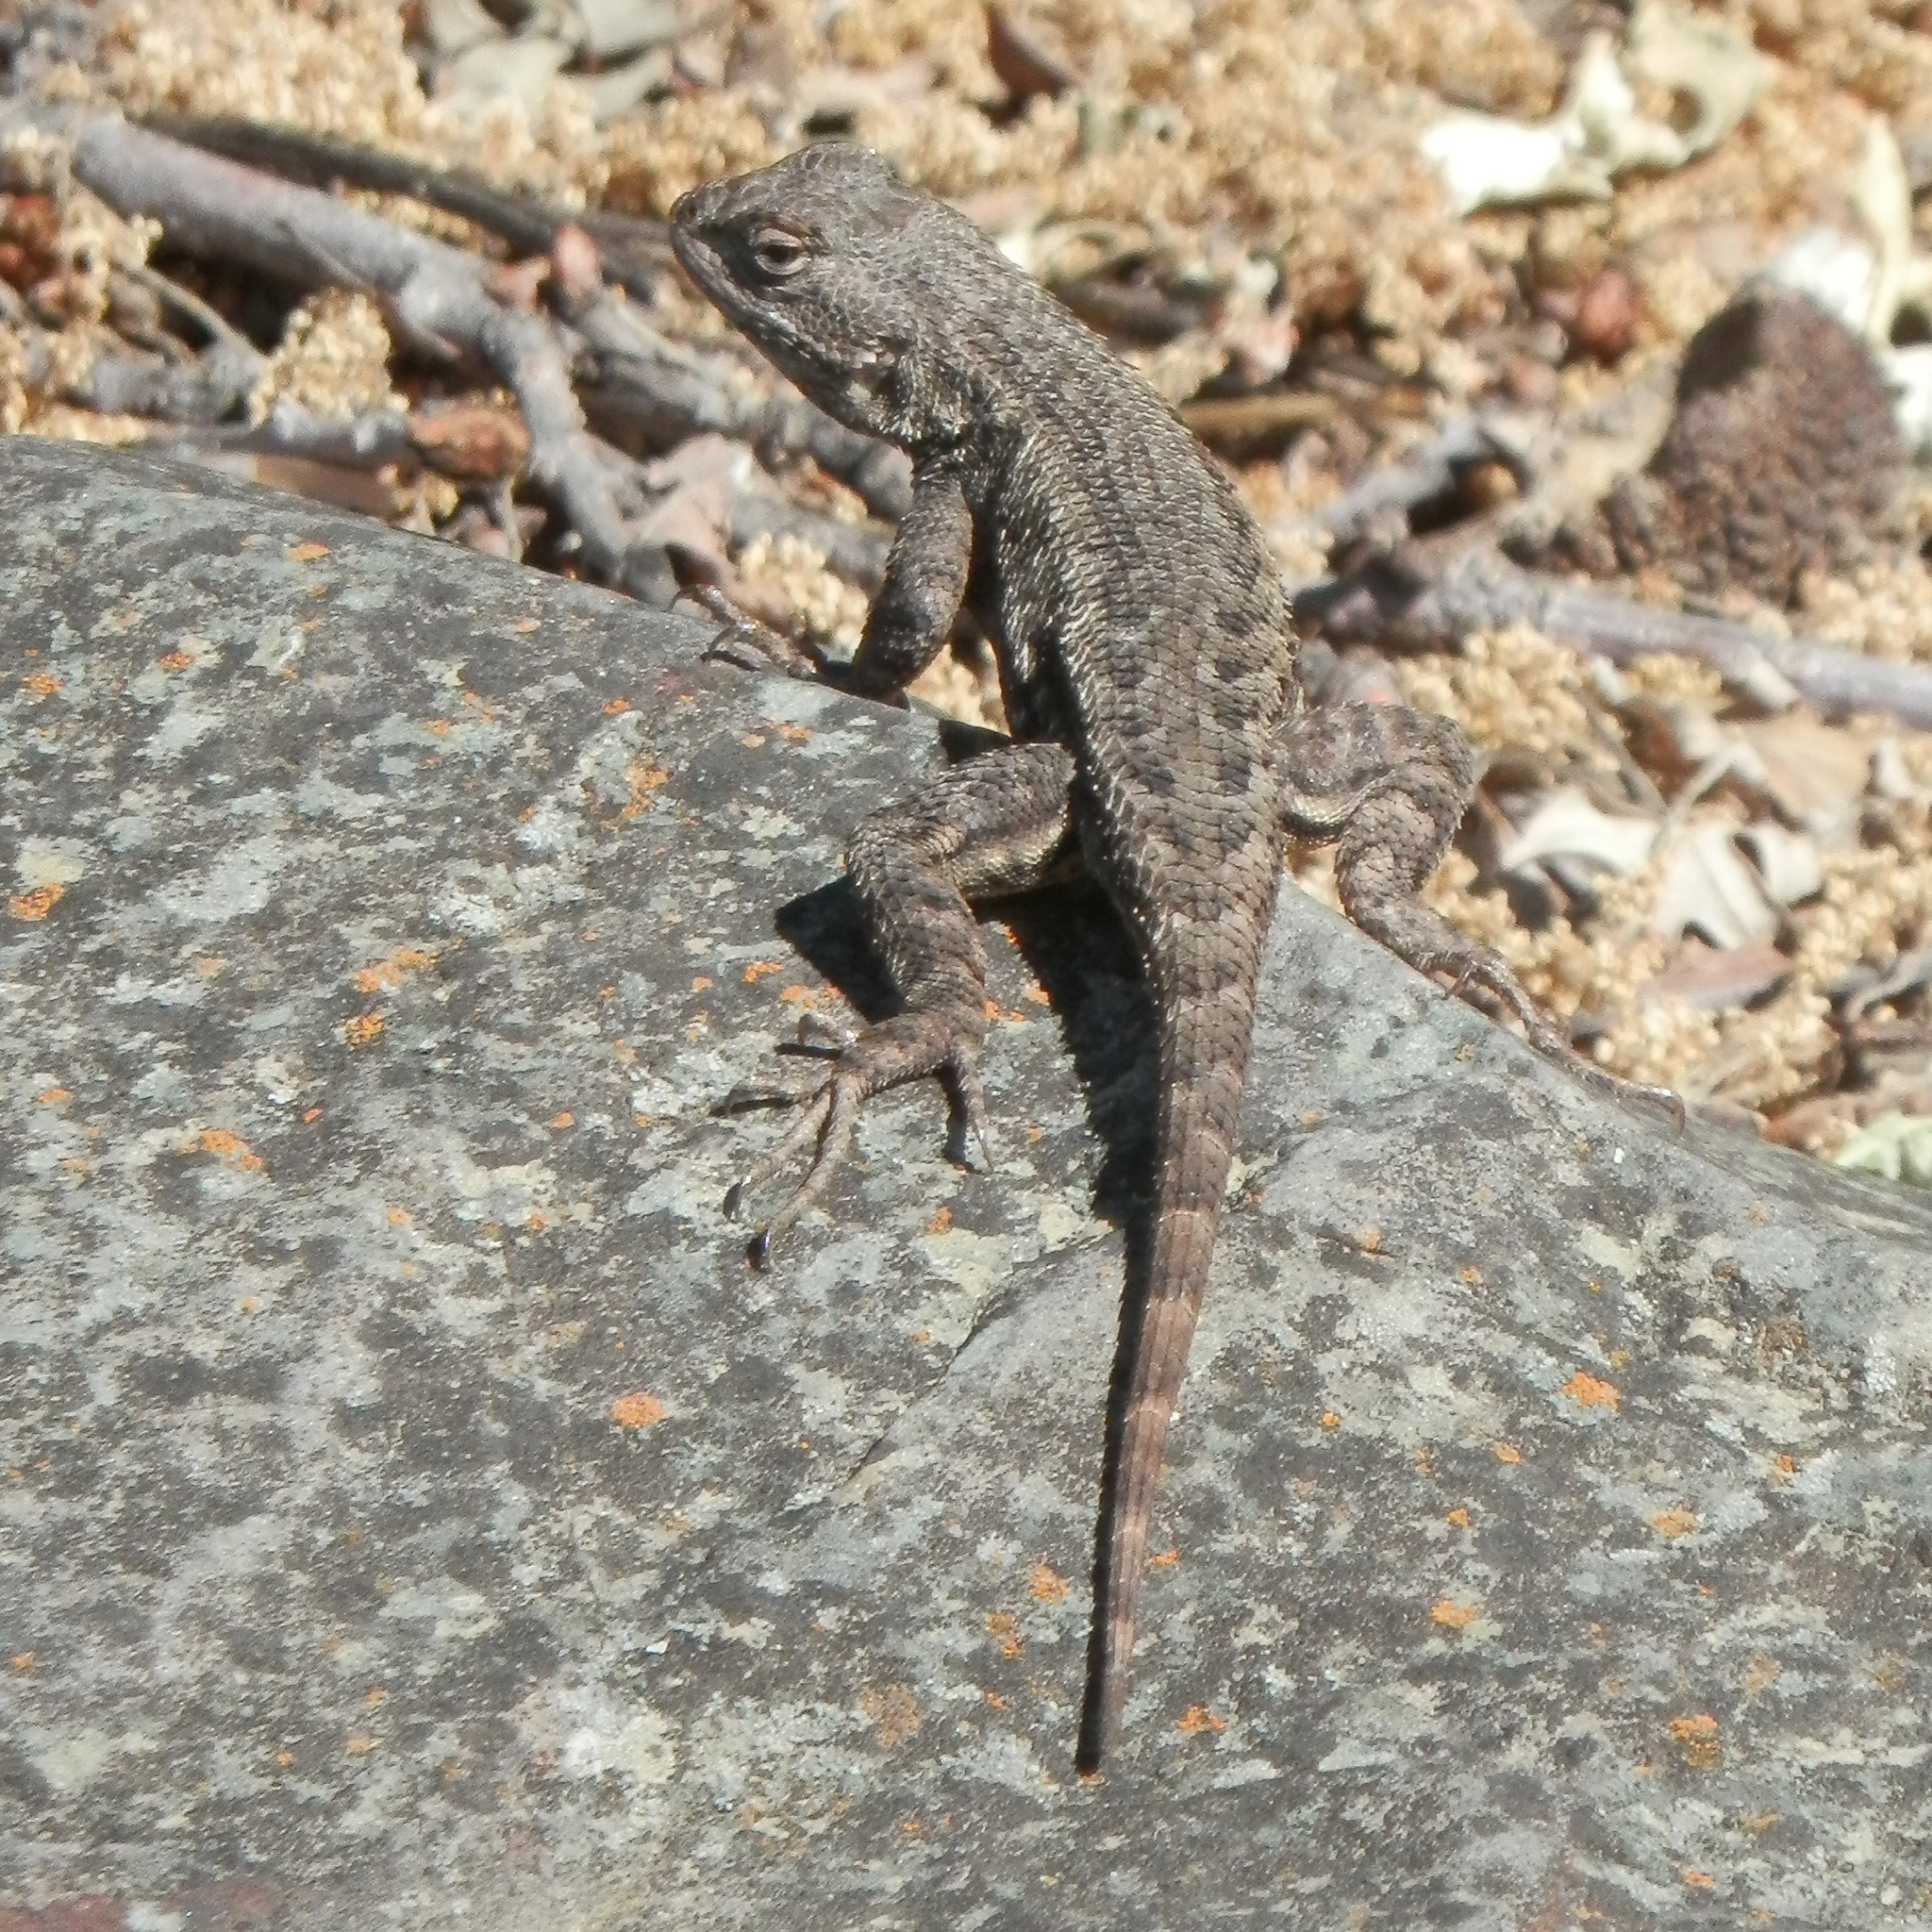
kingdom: Animalia
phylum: Chordata
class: Squamata
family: Phrynosomatidae
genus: Sceloporus
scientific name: Sceloporus occidentalis
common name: Western fence lizard
